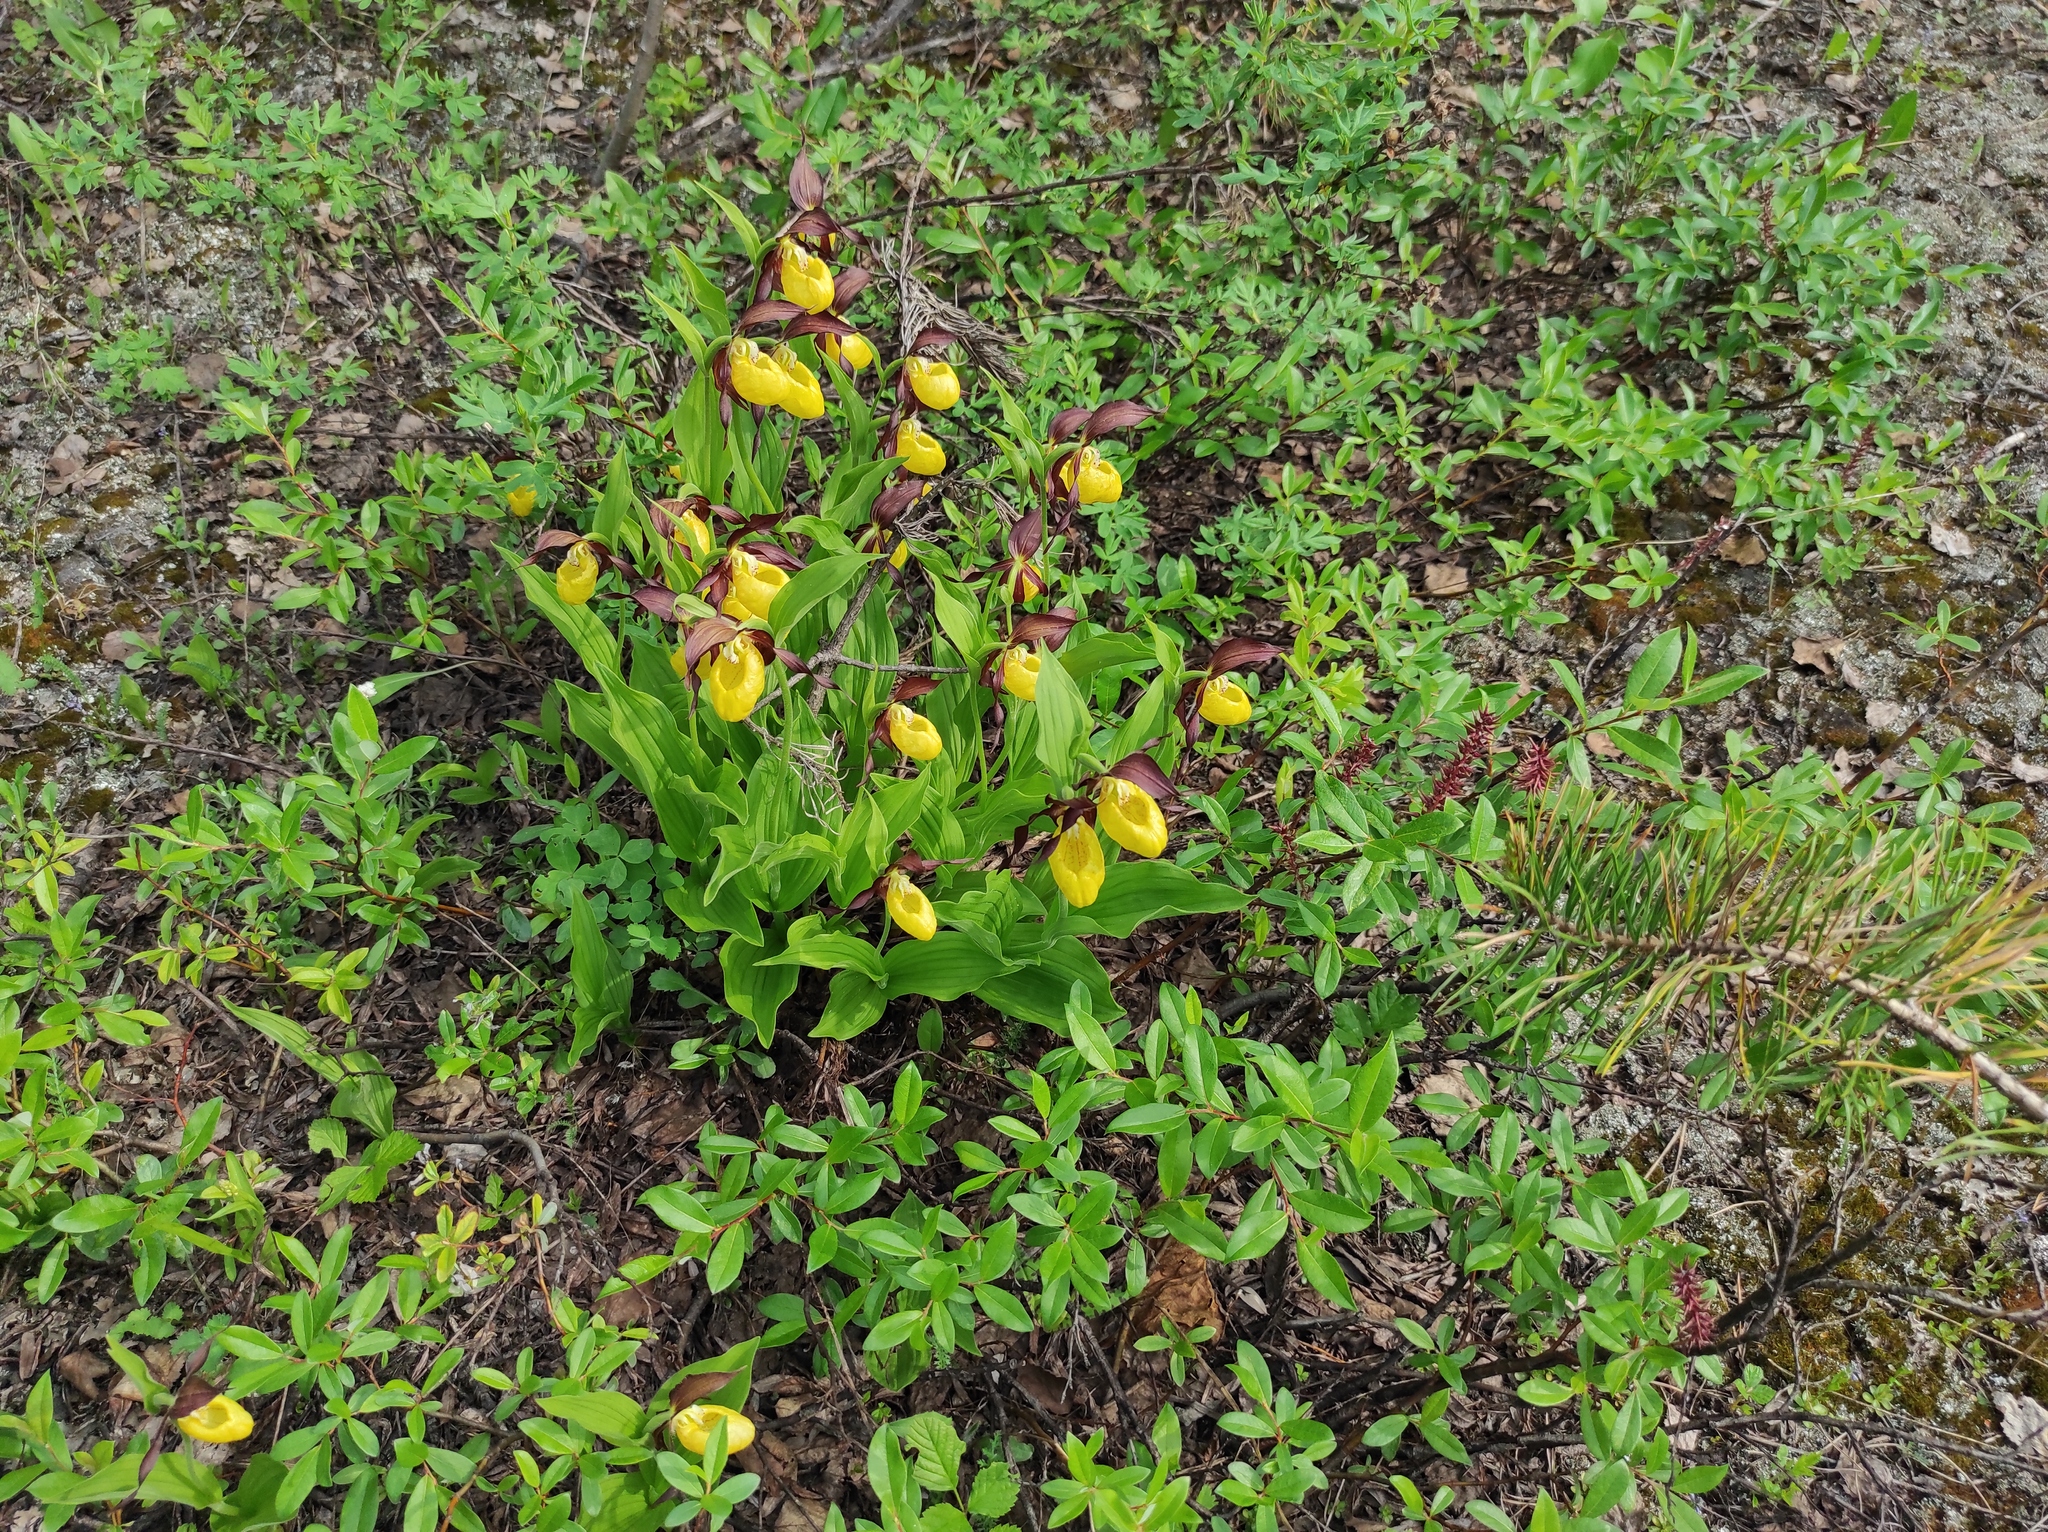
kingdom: Plantae
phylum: Tracheophyta
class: Pinopsida
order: Pinales
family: Pinaceae
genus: Pinus
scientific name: Pinus sylvestris
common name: Scots pine
